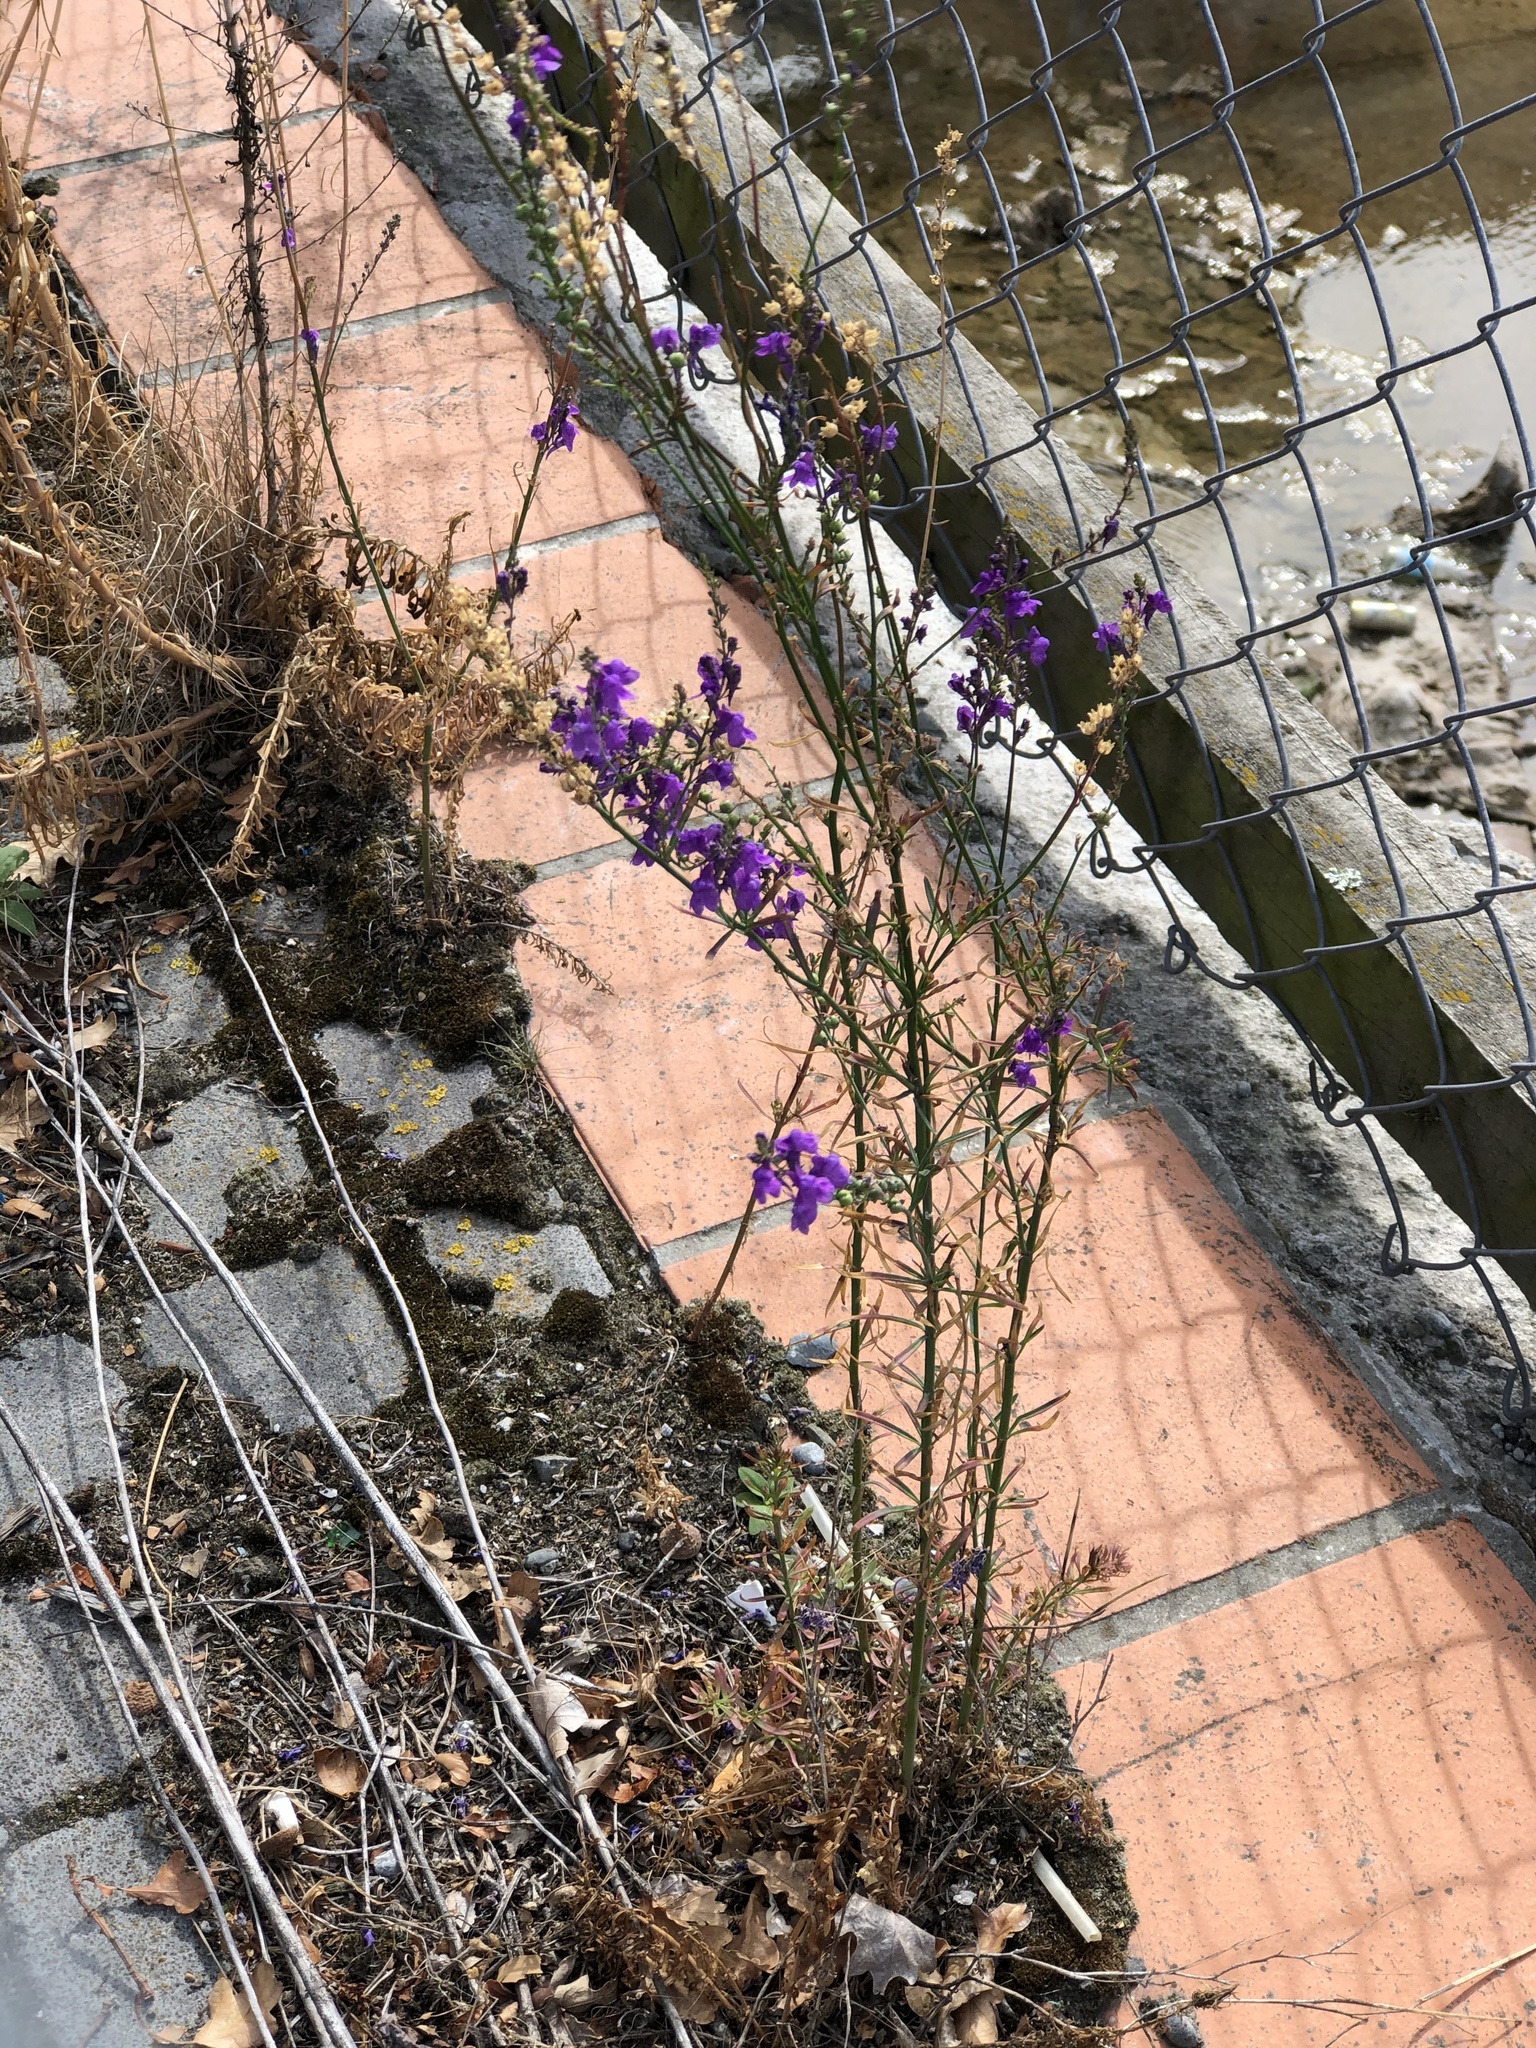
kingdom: Plantae
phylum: Tracheophyta
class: Magnoliopsida
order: Lamiales
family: Plantaginaceae
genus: Linaria
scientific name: Linaria purpurea
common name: Purple toadflax
